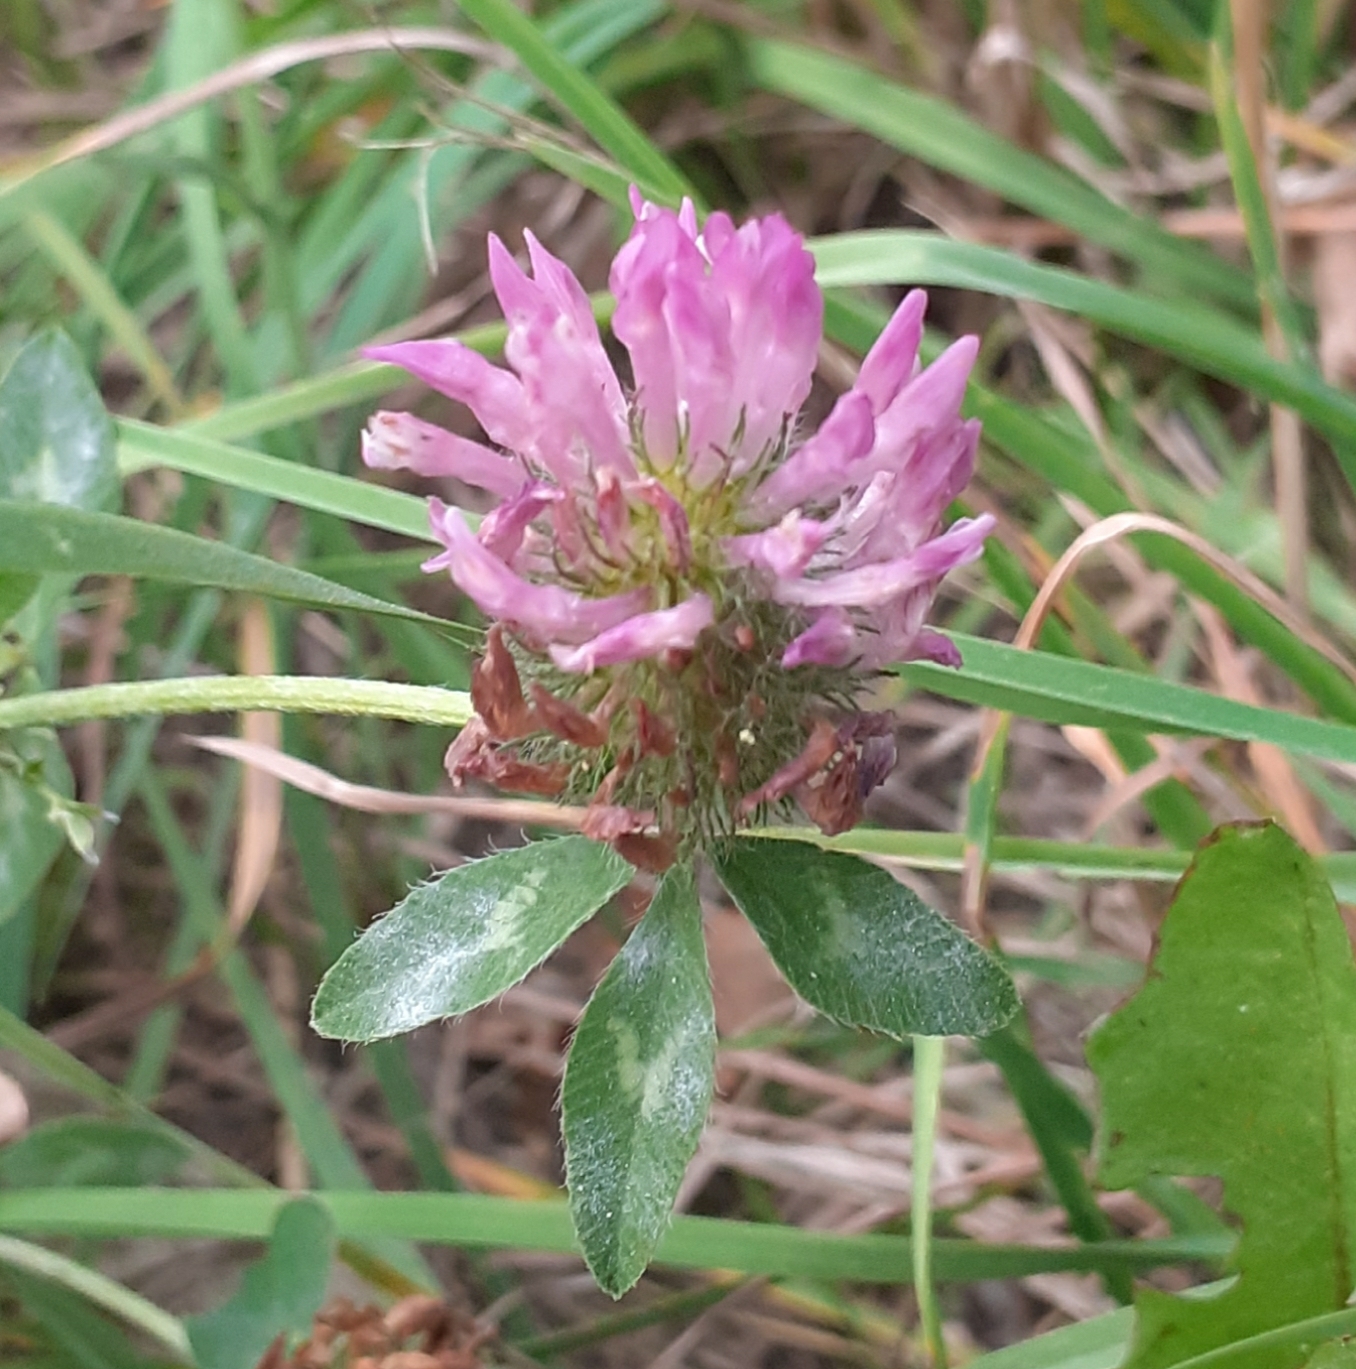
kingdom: Plantae
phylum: Tracheophyta
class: Magnoliopsida
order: Fabales
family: Fabaceae
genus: Trifolium
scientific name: Trifolium pratense
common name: Red clover
